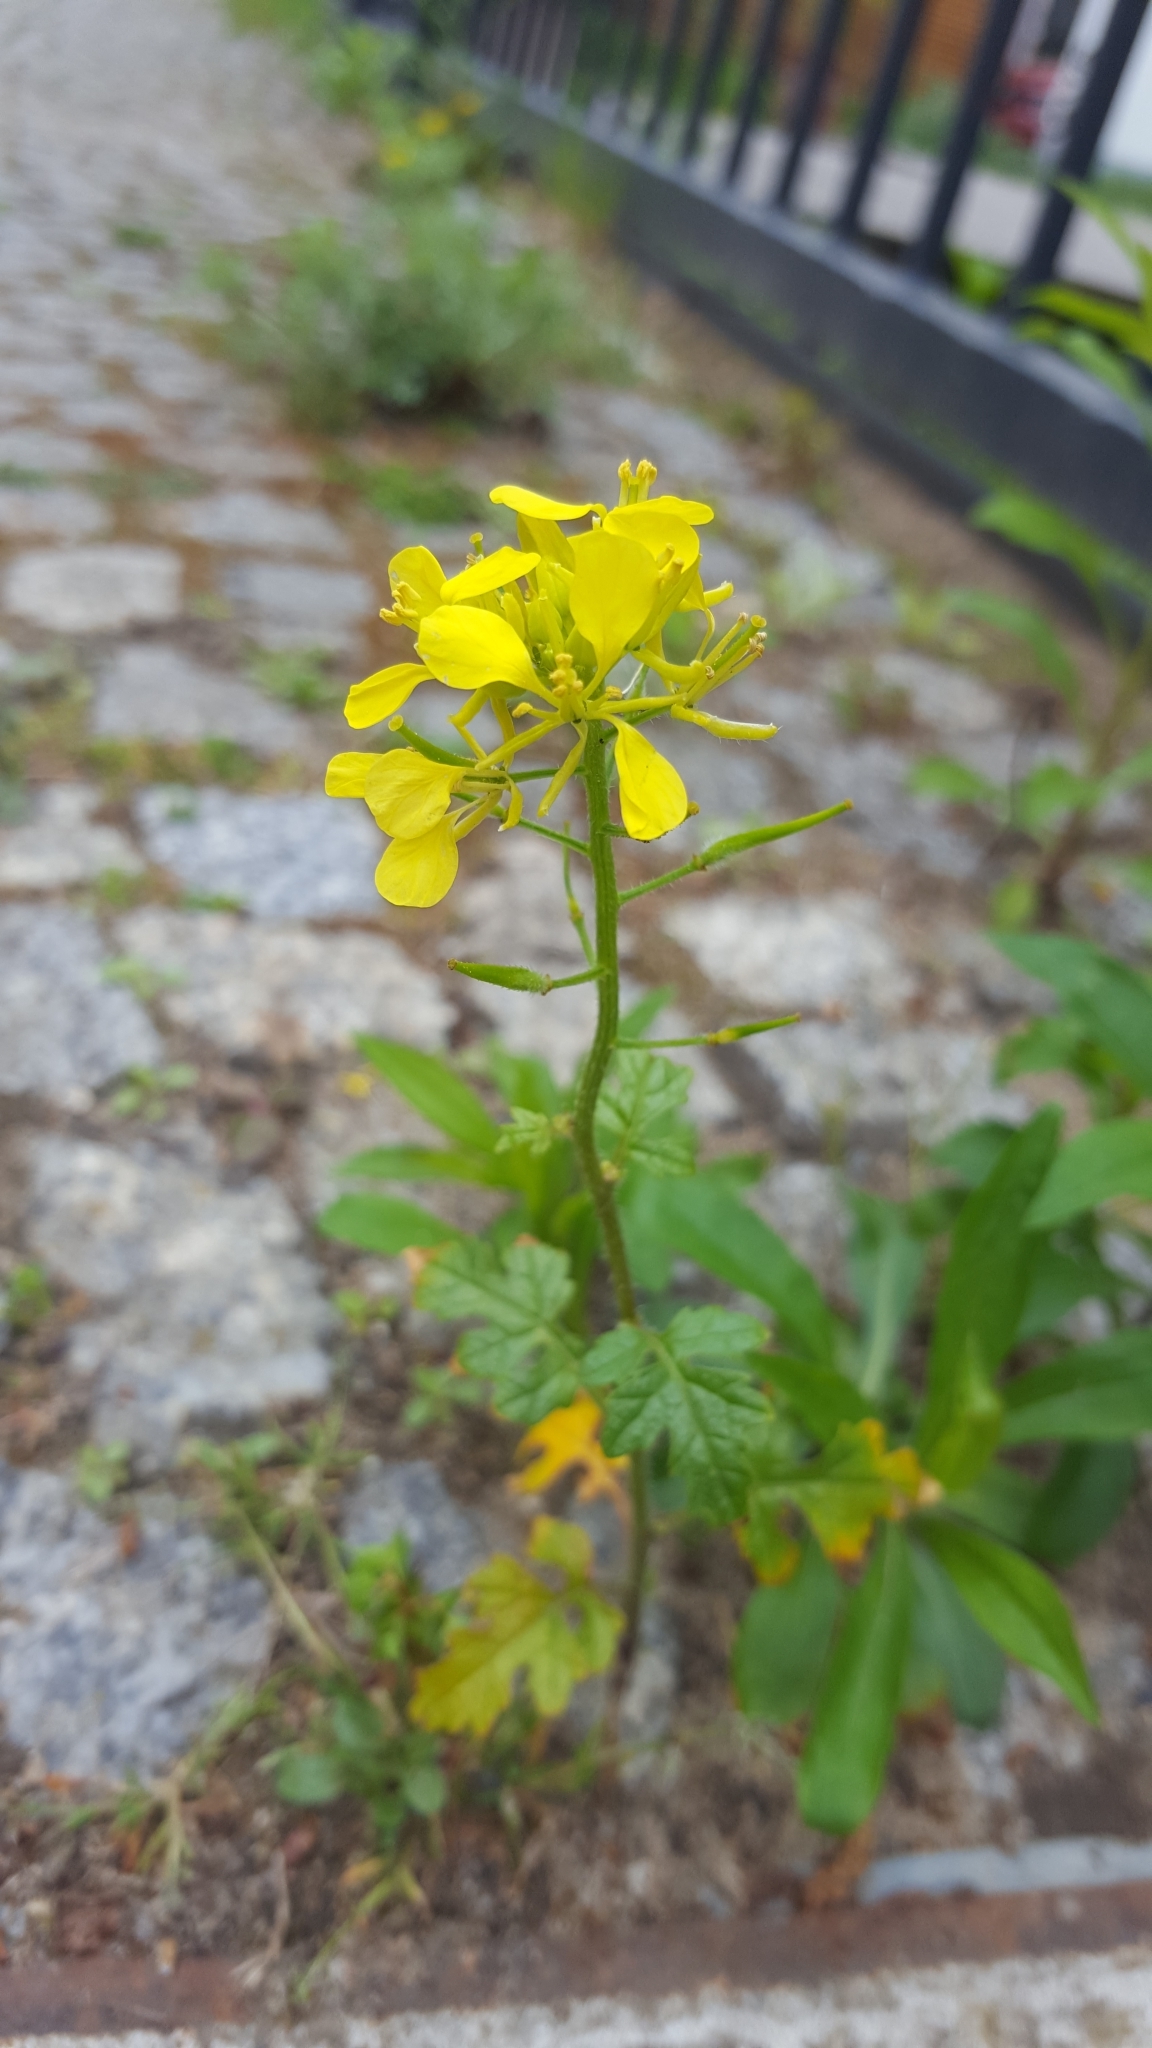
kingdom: Plantae
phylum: Tracheophyta
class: Magnoliopsida
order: Brassicales
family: Brassicaceae
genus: Sinapis
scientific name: Sinapis alba
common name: White mustard
